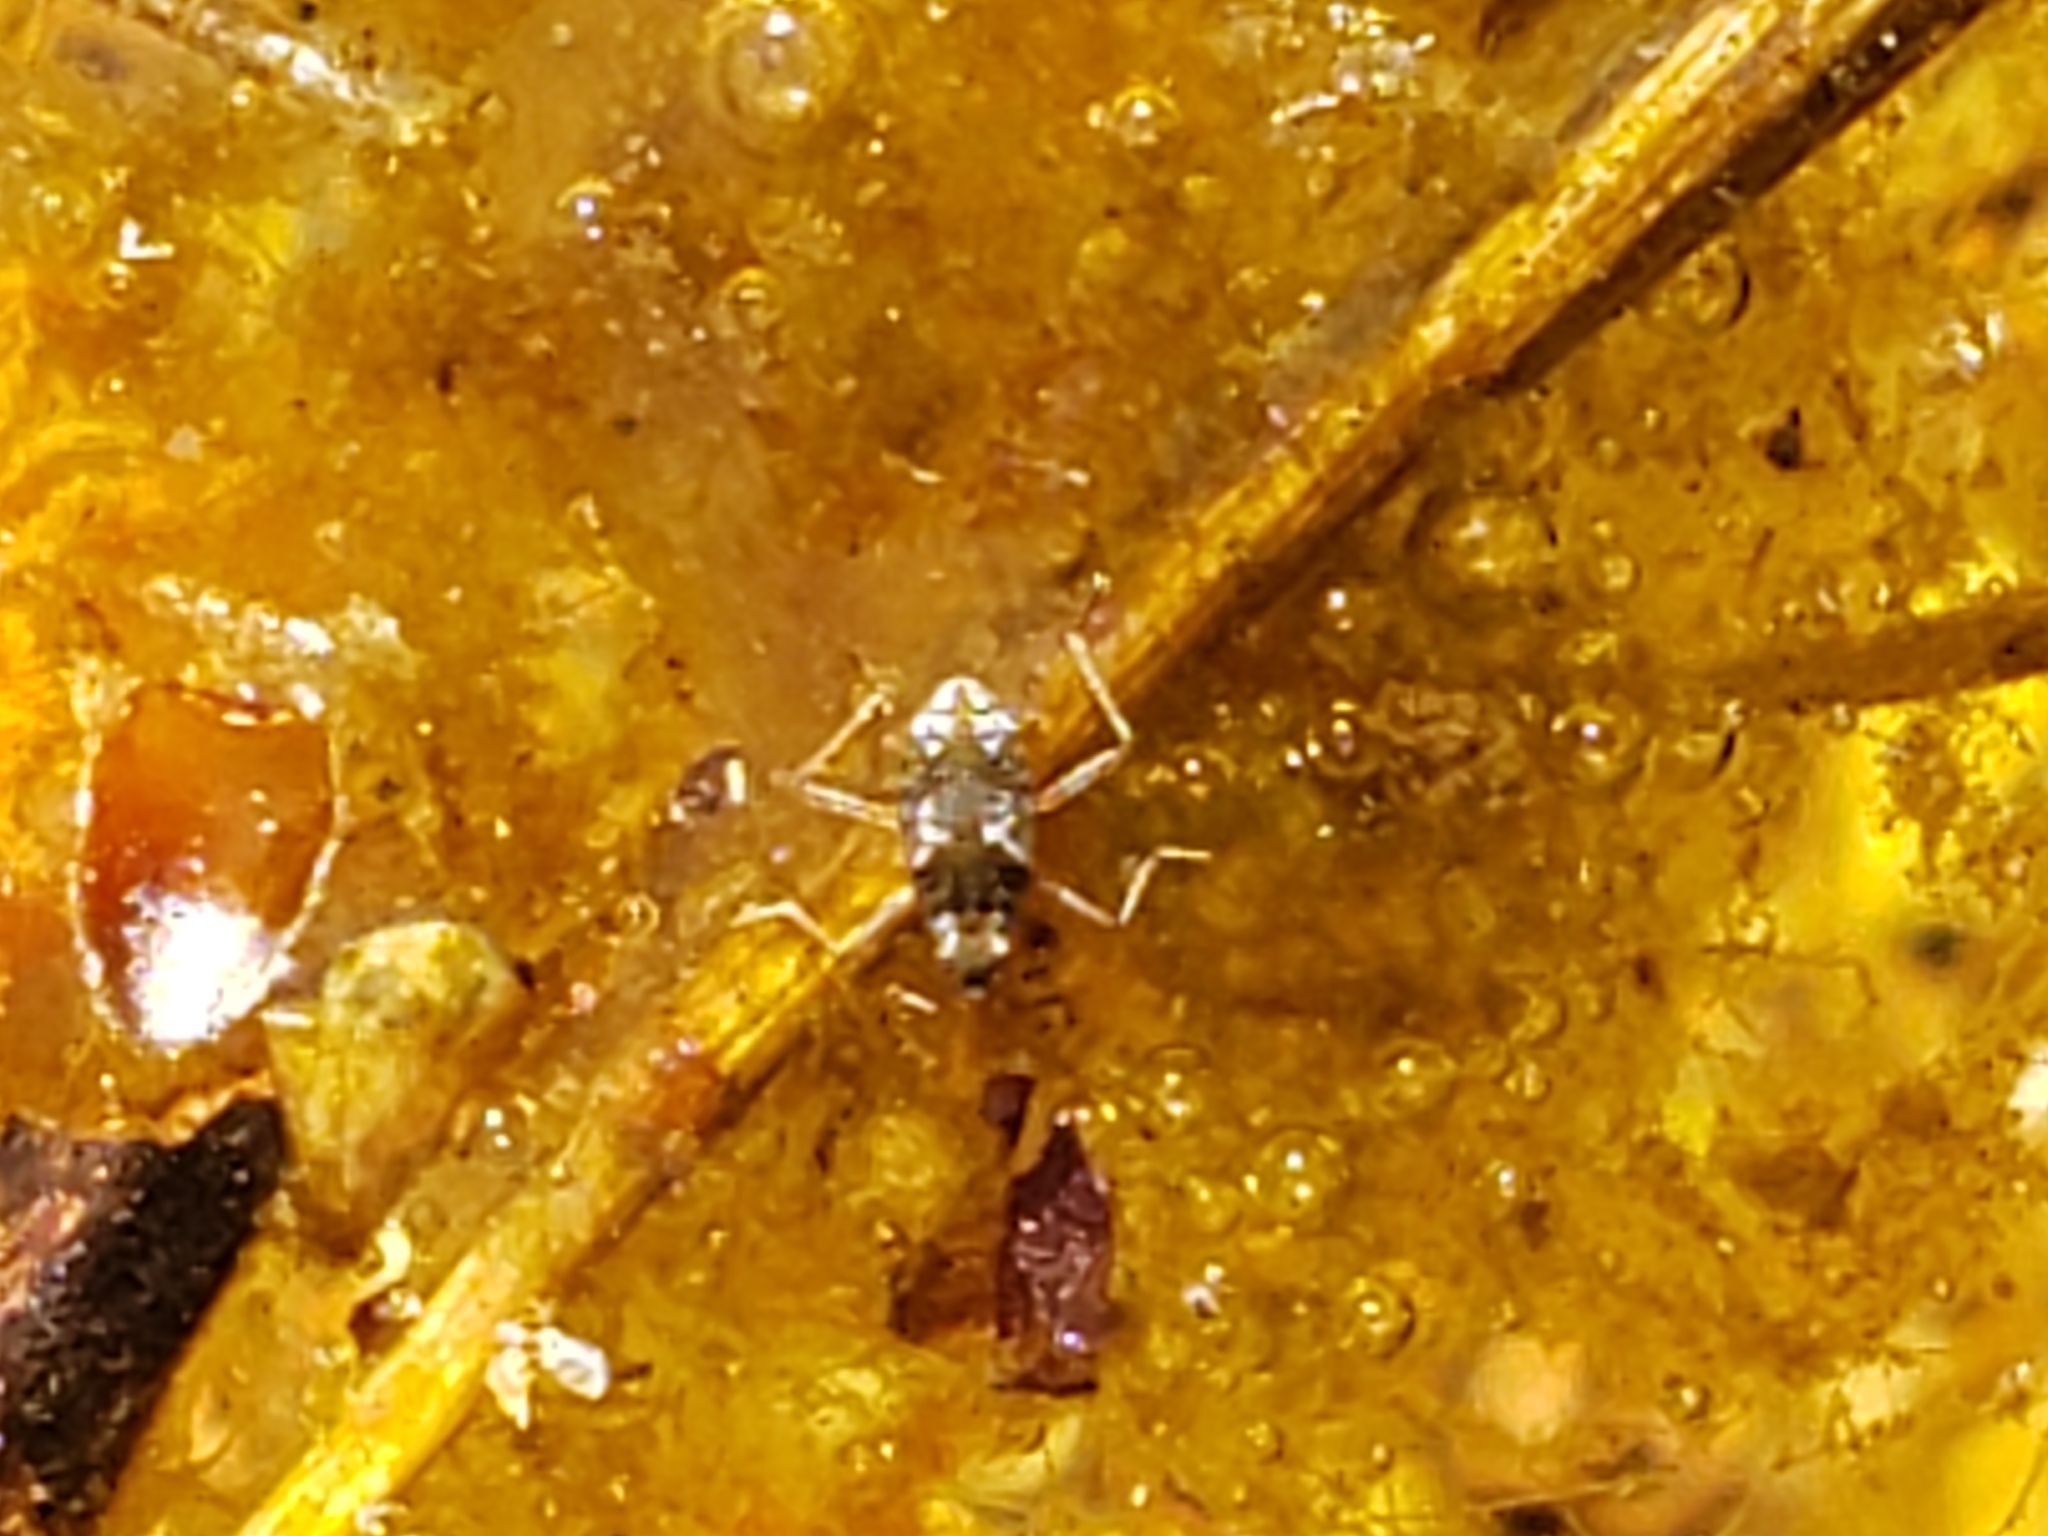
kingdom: Animalia
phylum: Arthropoda
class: Insecta
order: Hemiptera
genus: Kirkaldya
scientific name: Kirkaldya
